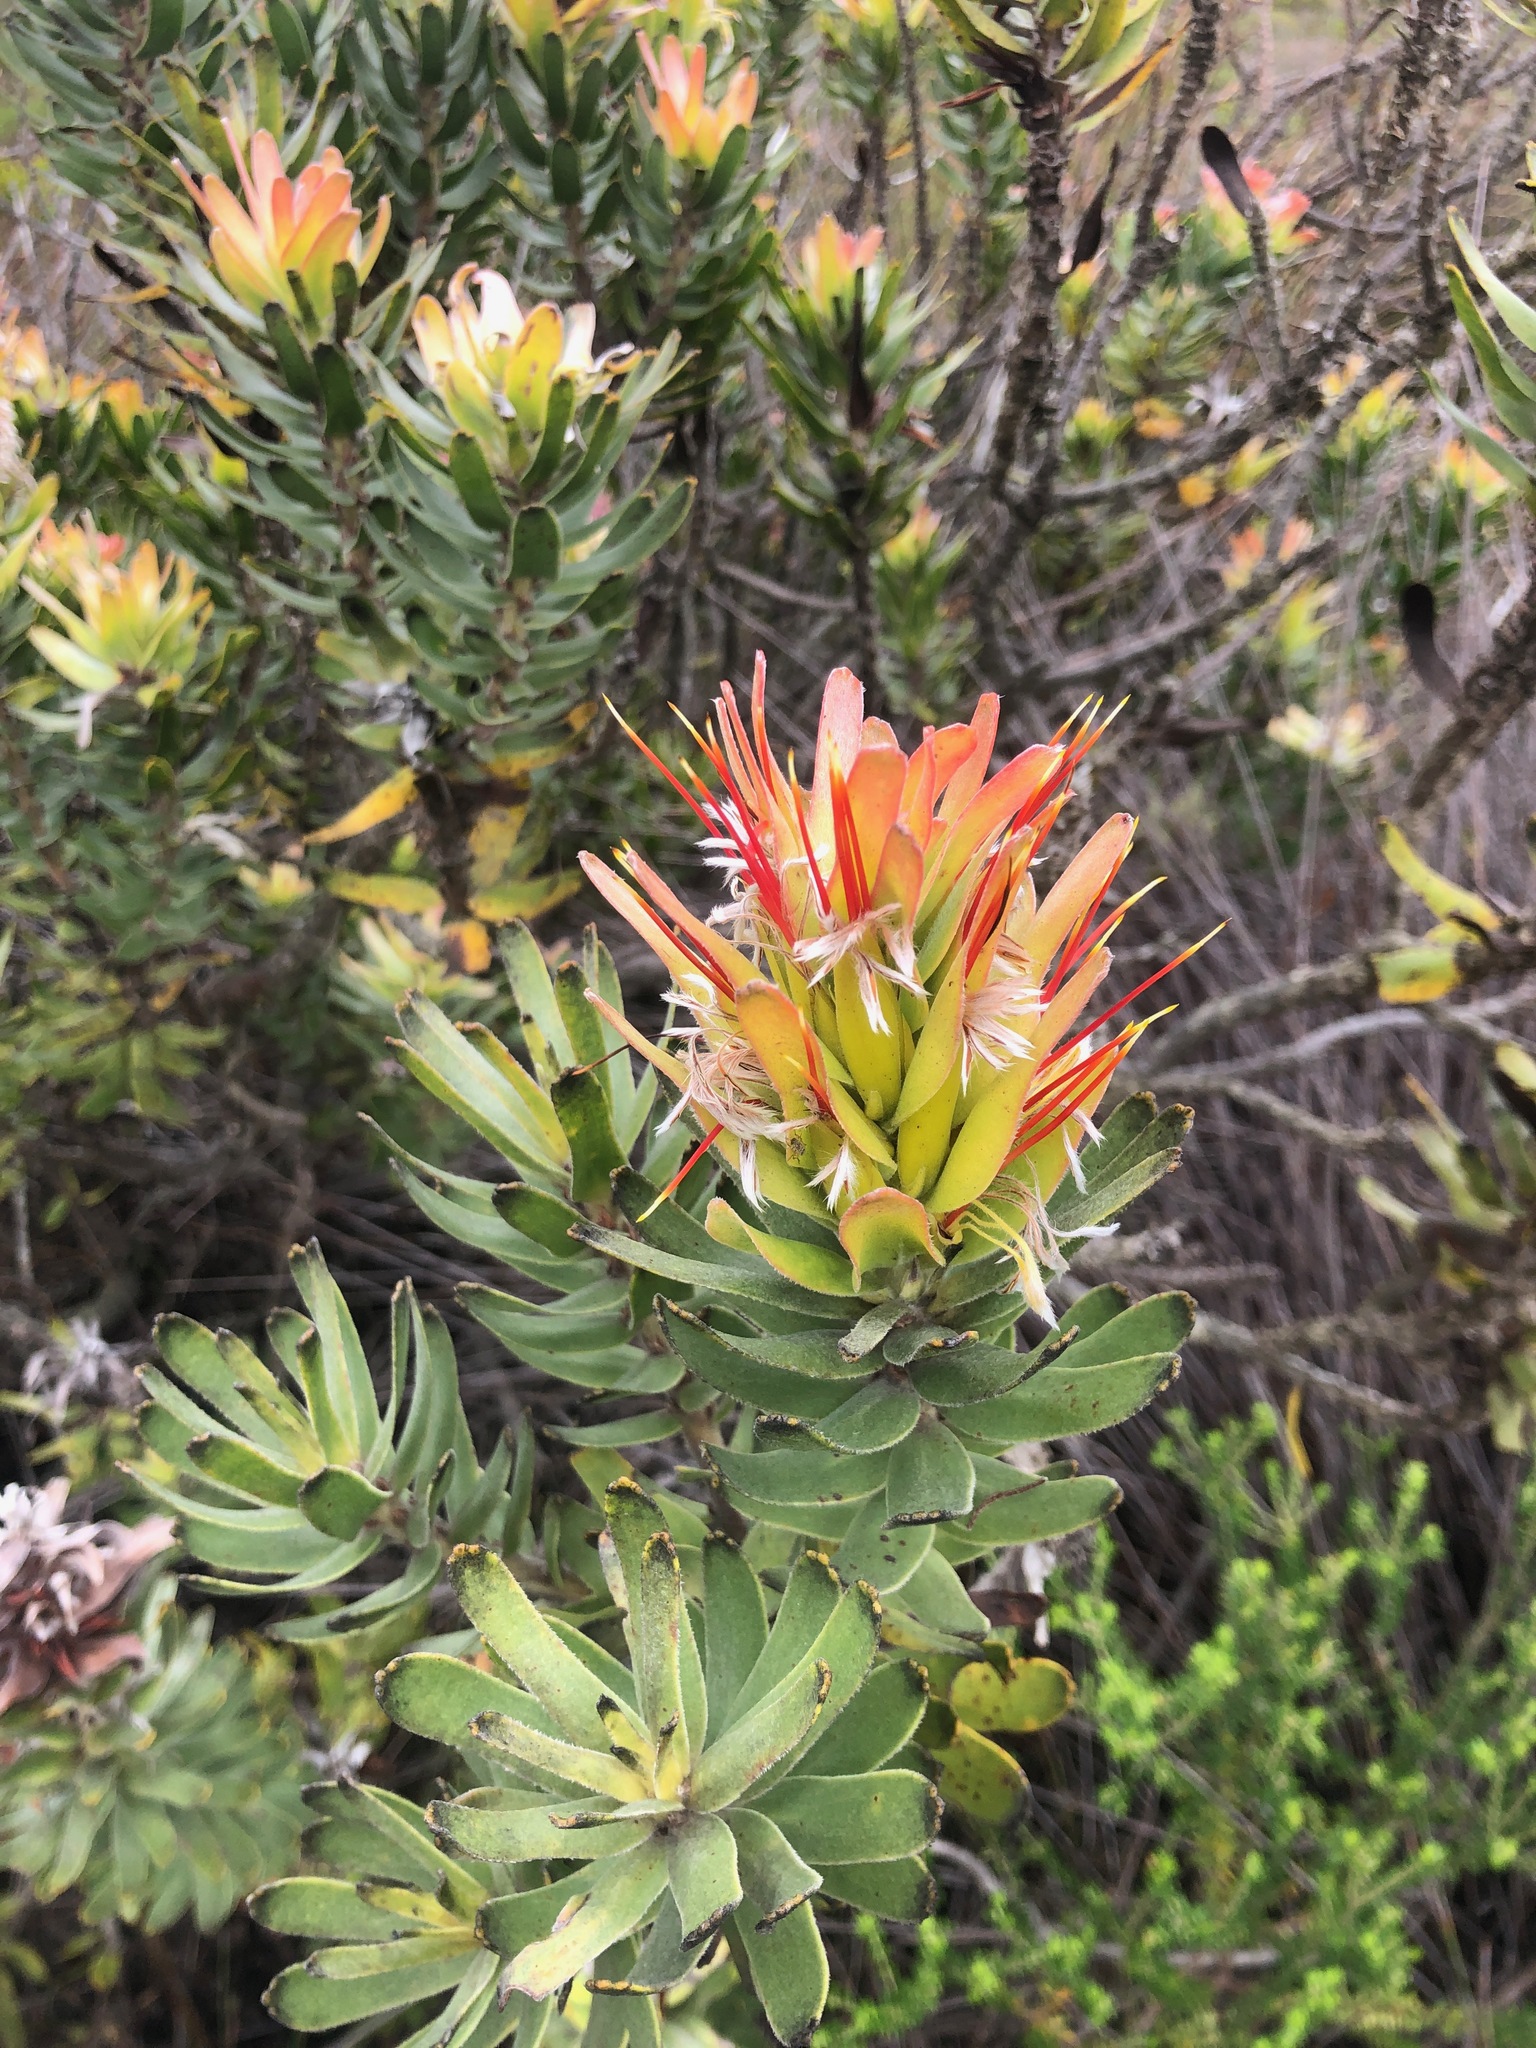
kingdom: Plantae
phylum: Tracheophyta
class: Magnoliopsida
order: Proteales
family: Proteaceae
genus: Mimetes
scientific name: Mimetes cucullatus
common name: Common pagoda
